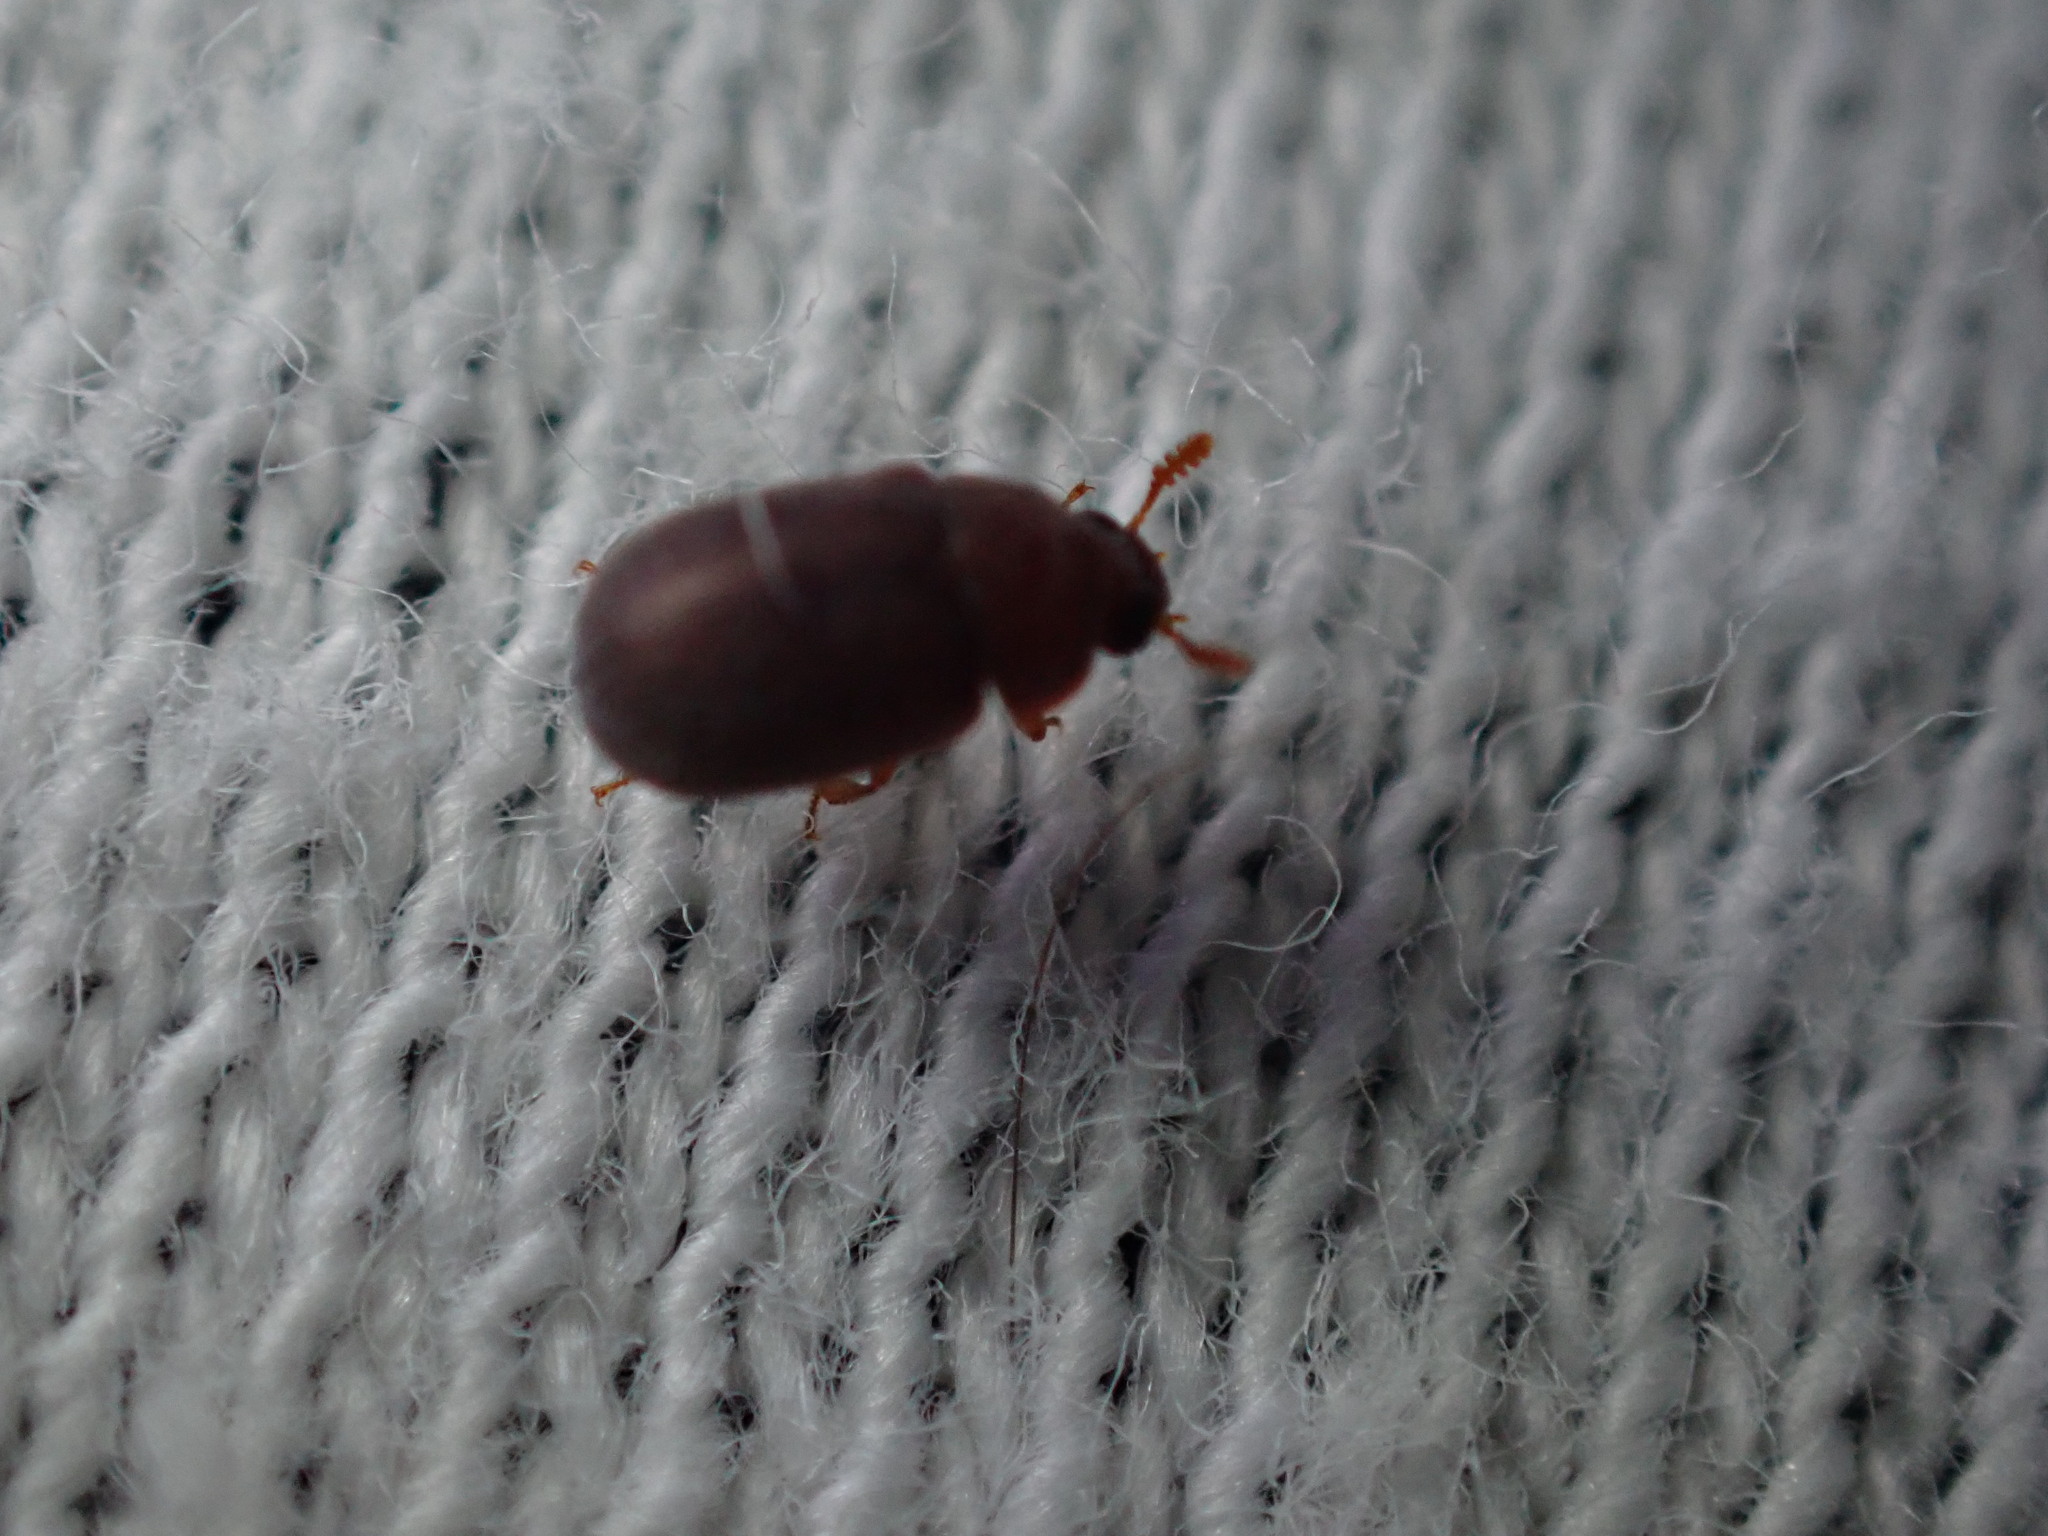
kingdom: Animalia
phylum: Arthropoda
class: Insecta
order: Coleoptera
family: Tenebrionidae
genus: Pentaphyllus
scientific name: Pentaphyllus chrysomeloides
